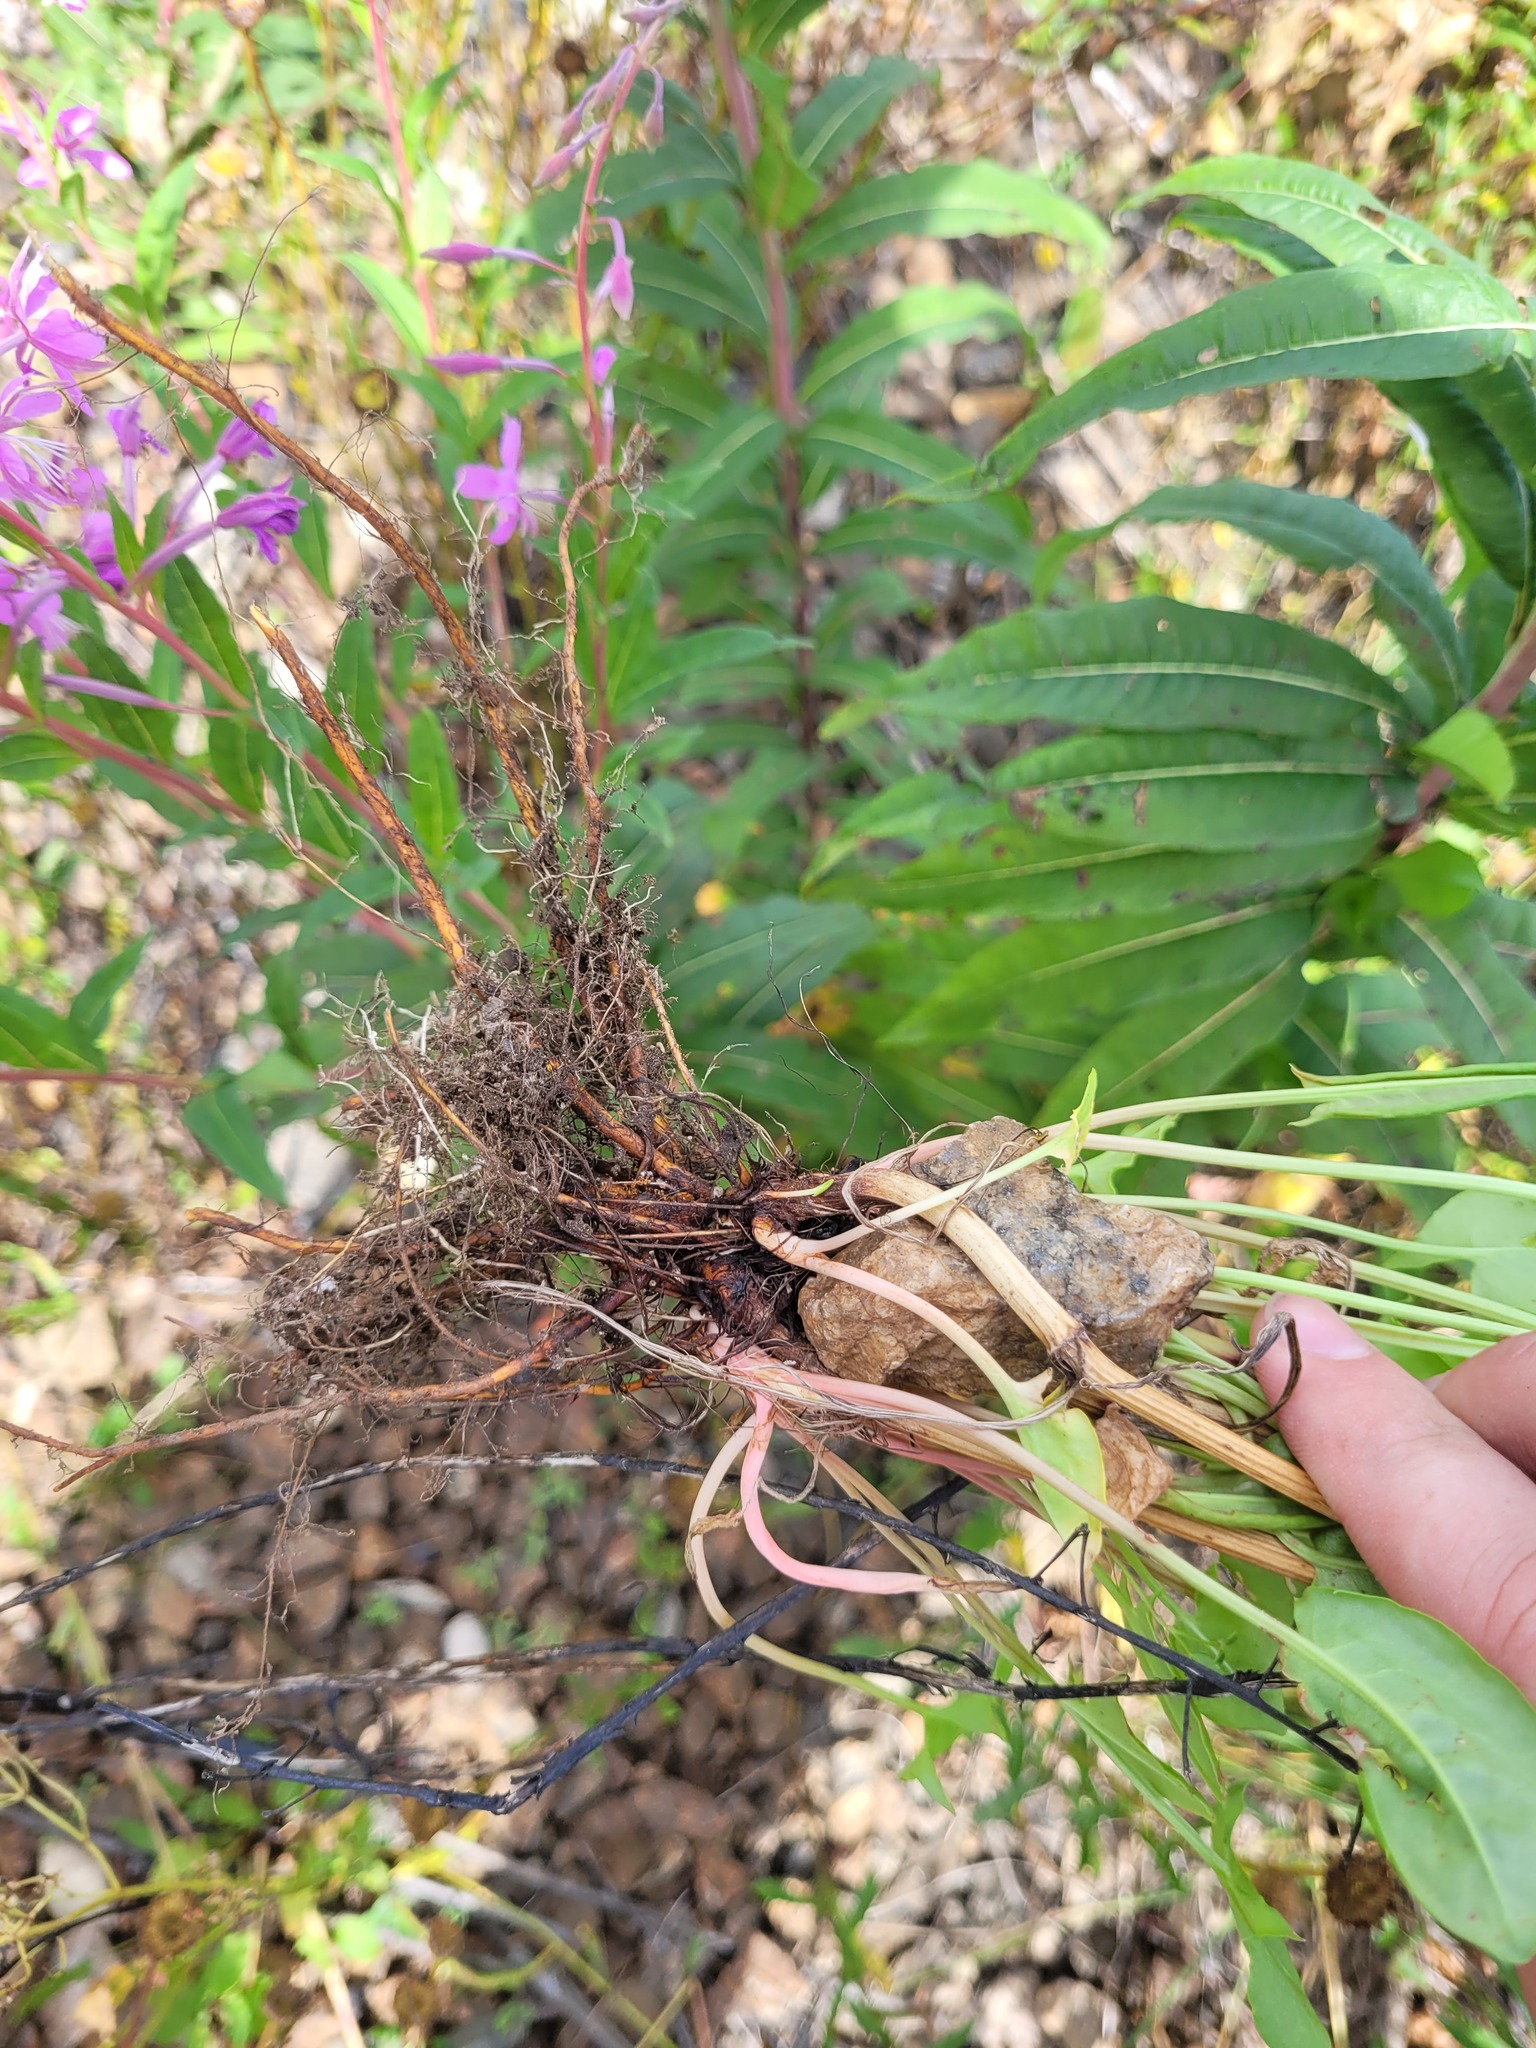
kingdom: Plantae
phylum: Tracheophyta
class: Magnoliopsida
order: Caryophyllales
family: Polygonaceae
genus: Rumex
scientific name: Rumex acetosa
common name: Garden sorrel
